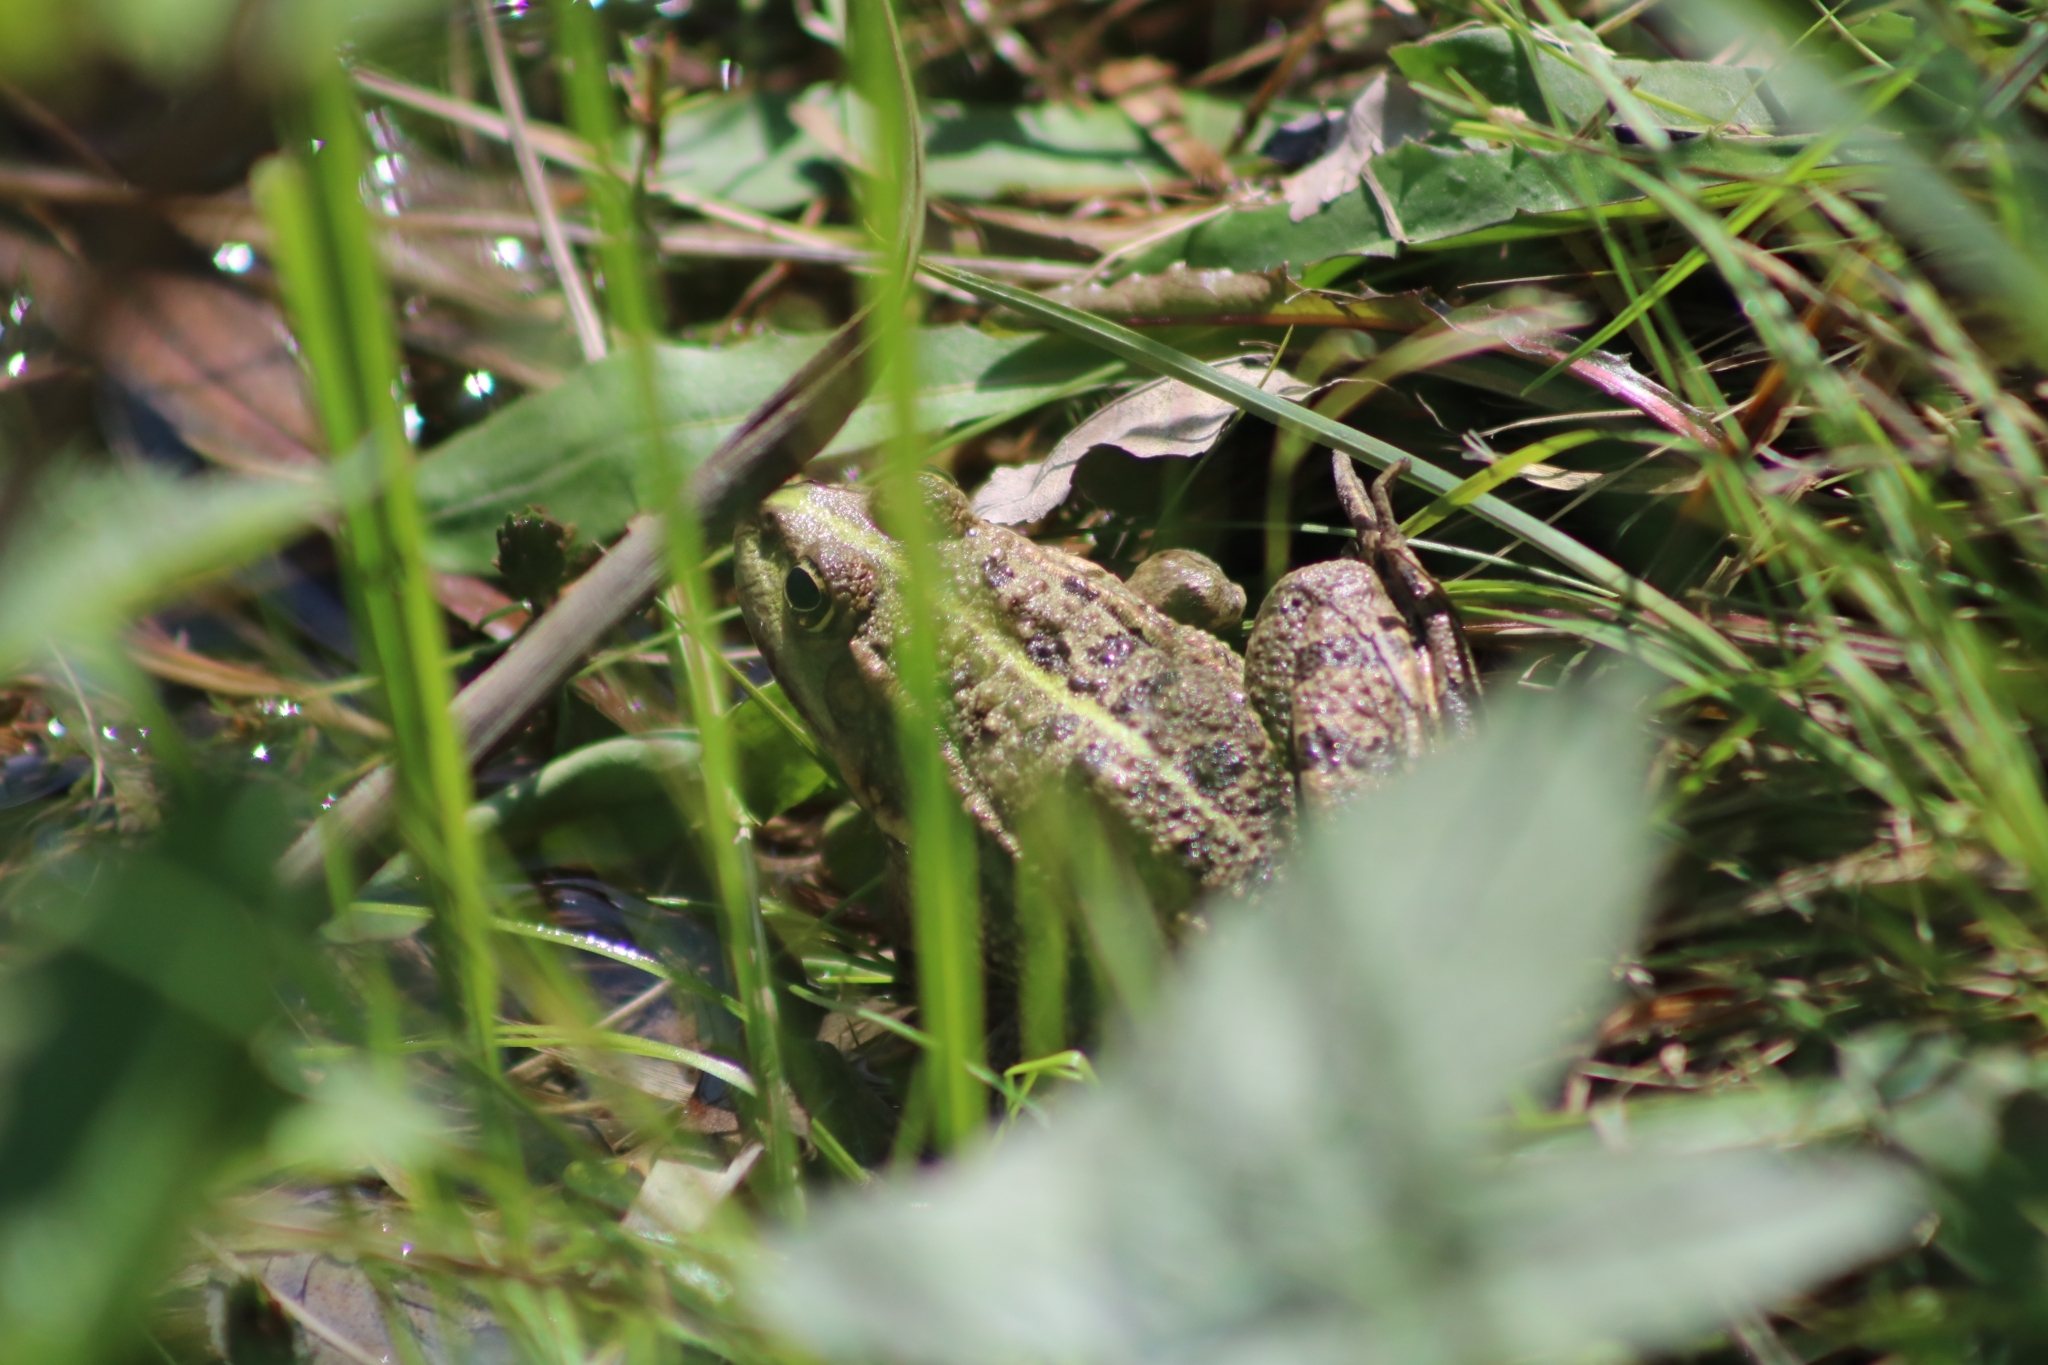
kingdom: Animalia
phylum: Chordata
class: Amphibia
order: Anura
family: Ranidae
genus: Pelophylax
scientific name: Pelophylax ridibundus
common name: Marsh frog
